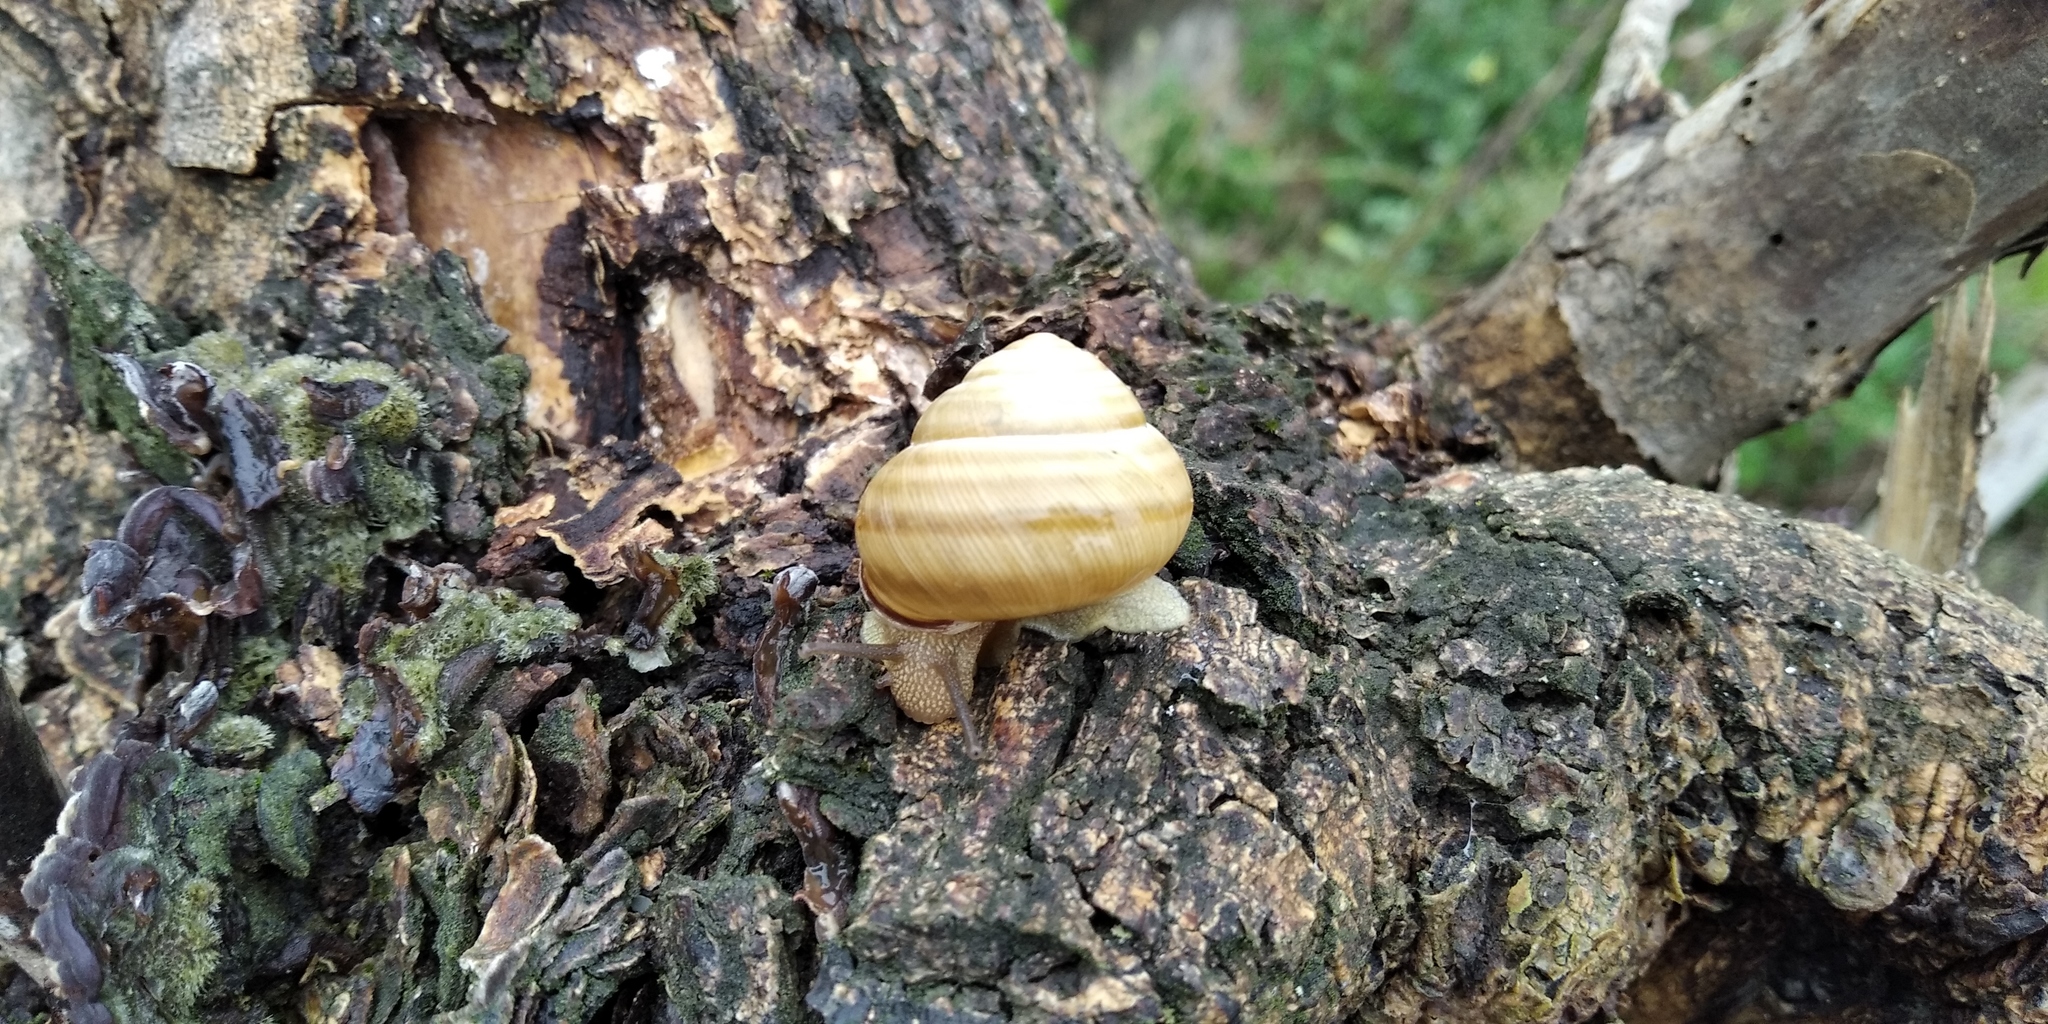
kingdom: Animalia
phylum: Mollusca
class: Gastropoda
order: Stylommatophora
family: Helicidae
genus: Caucasotachea
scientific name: Caucasotachea vindobonensis
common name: European helicid land snail
